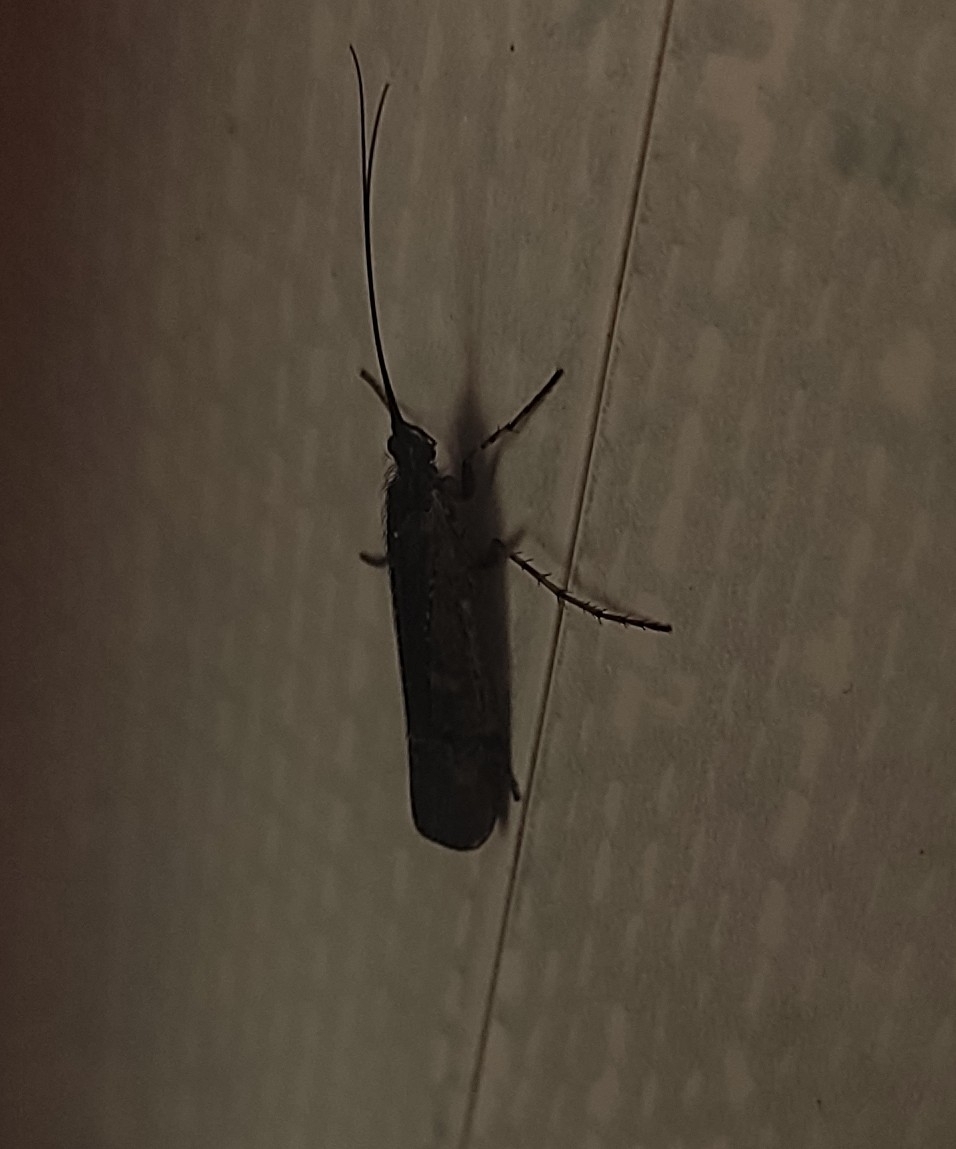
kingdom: Animalia
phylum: Arthropoda
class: Insecta
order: Trichoptera
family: Limnephilidae
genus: Limnephilus
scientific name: Limnephilus affinis
